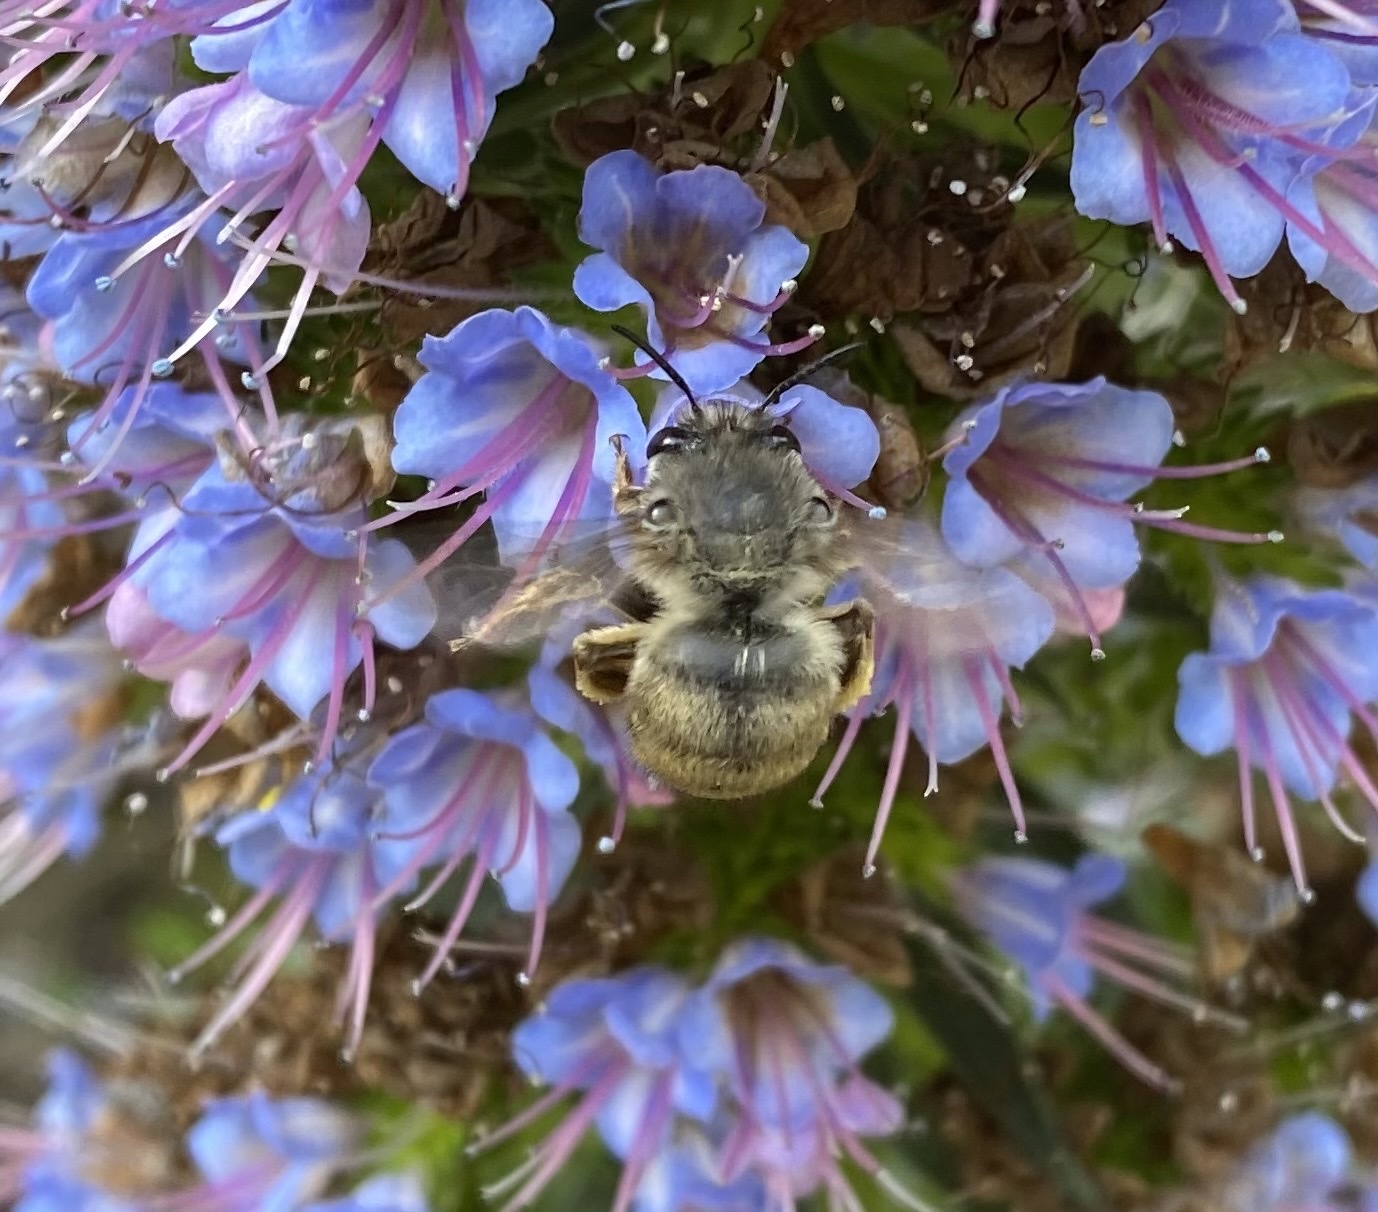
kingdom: Animalia
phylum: Arthropoda
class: Insecta
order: Hymenoptera
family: Apidae
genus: Habropoda
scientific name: Habropoda depressa
